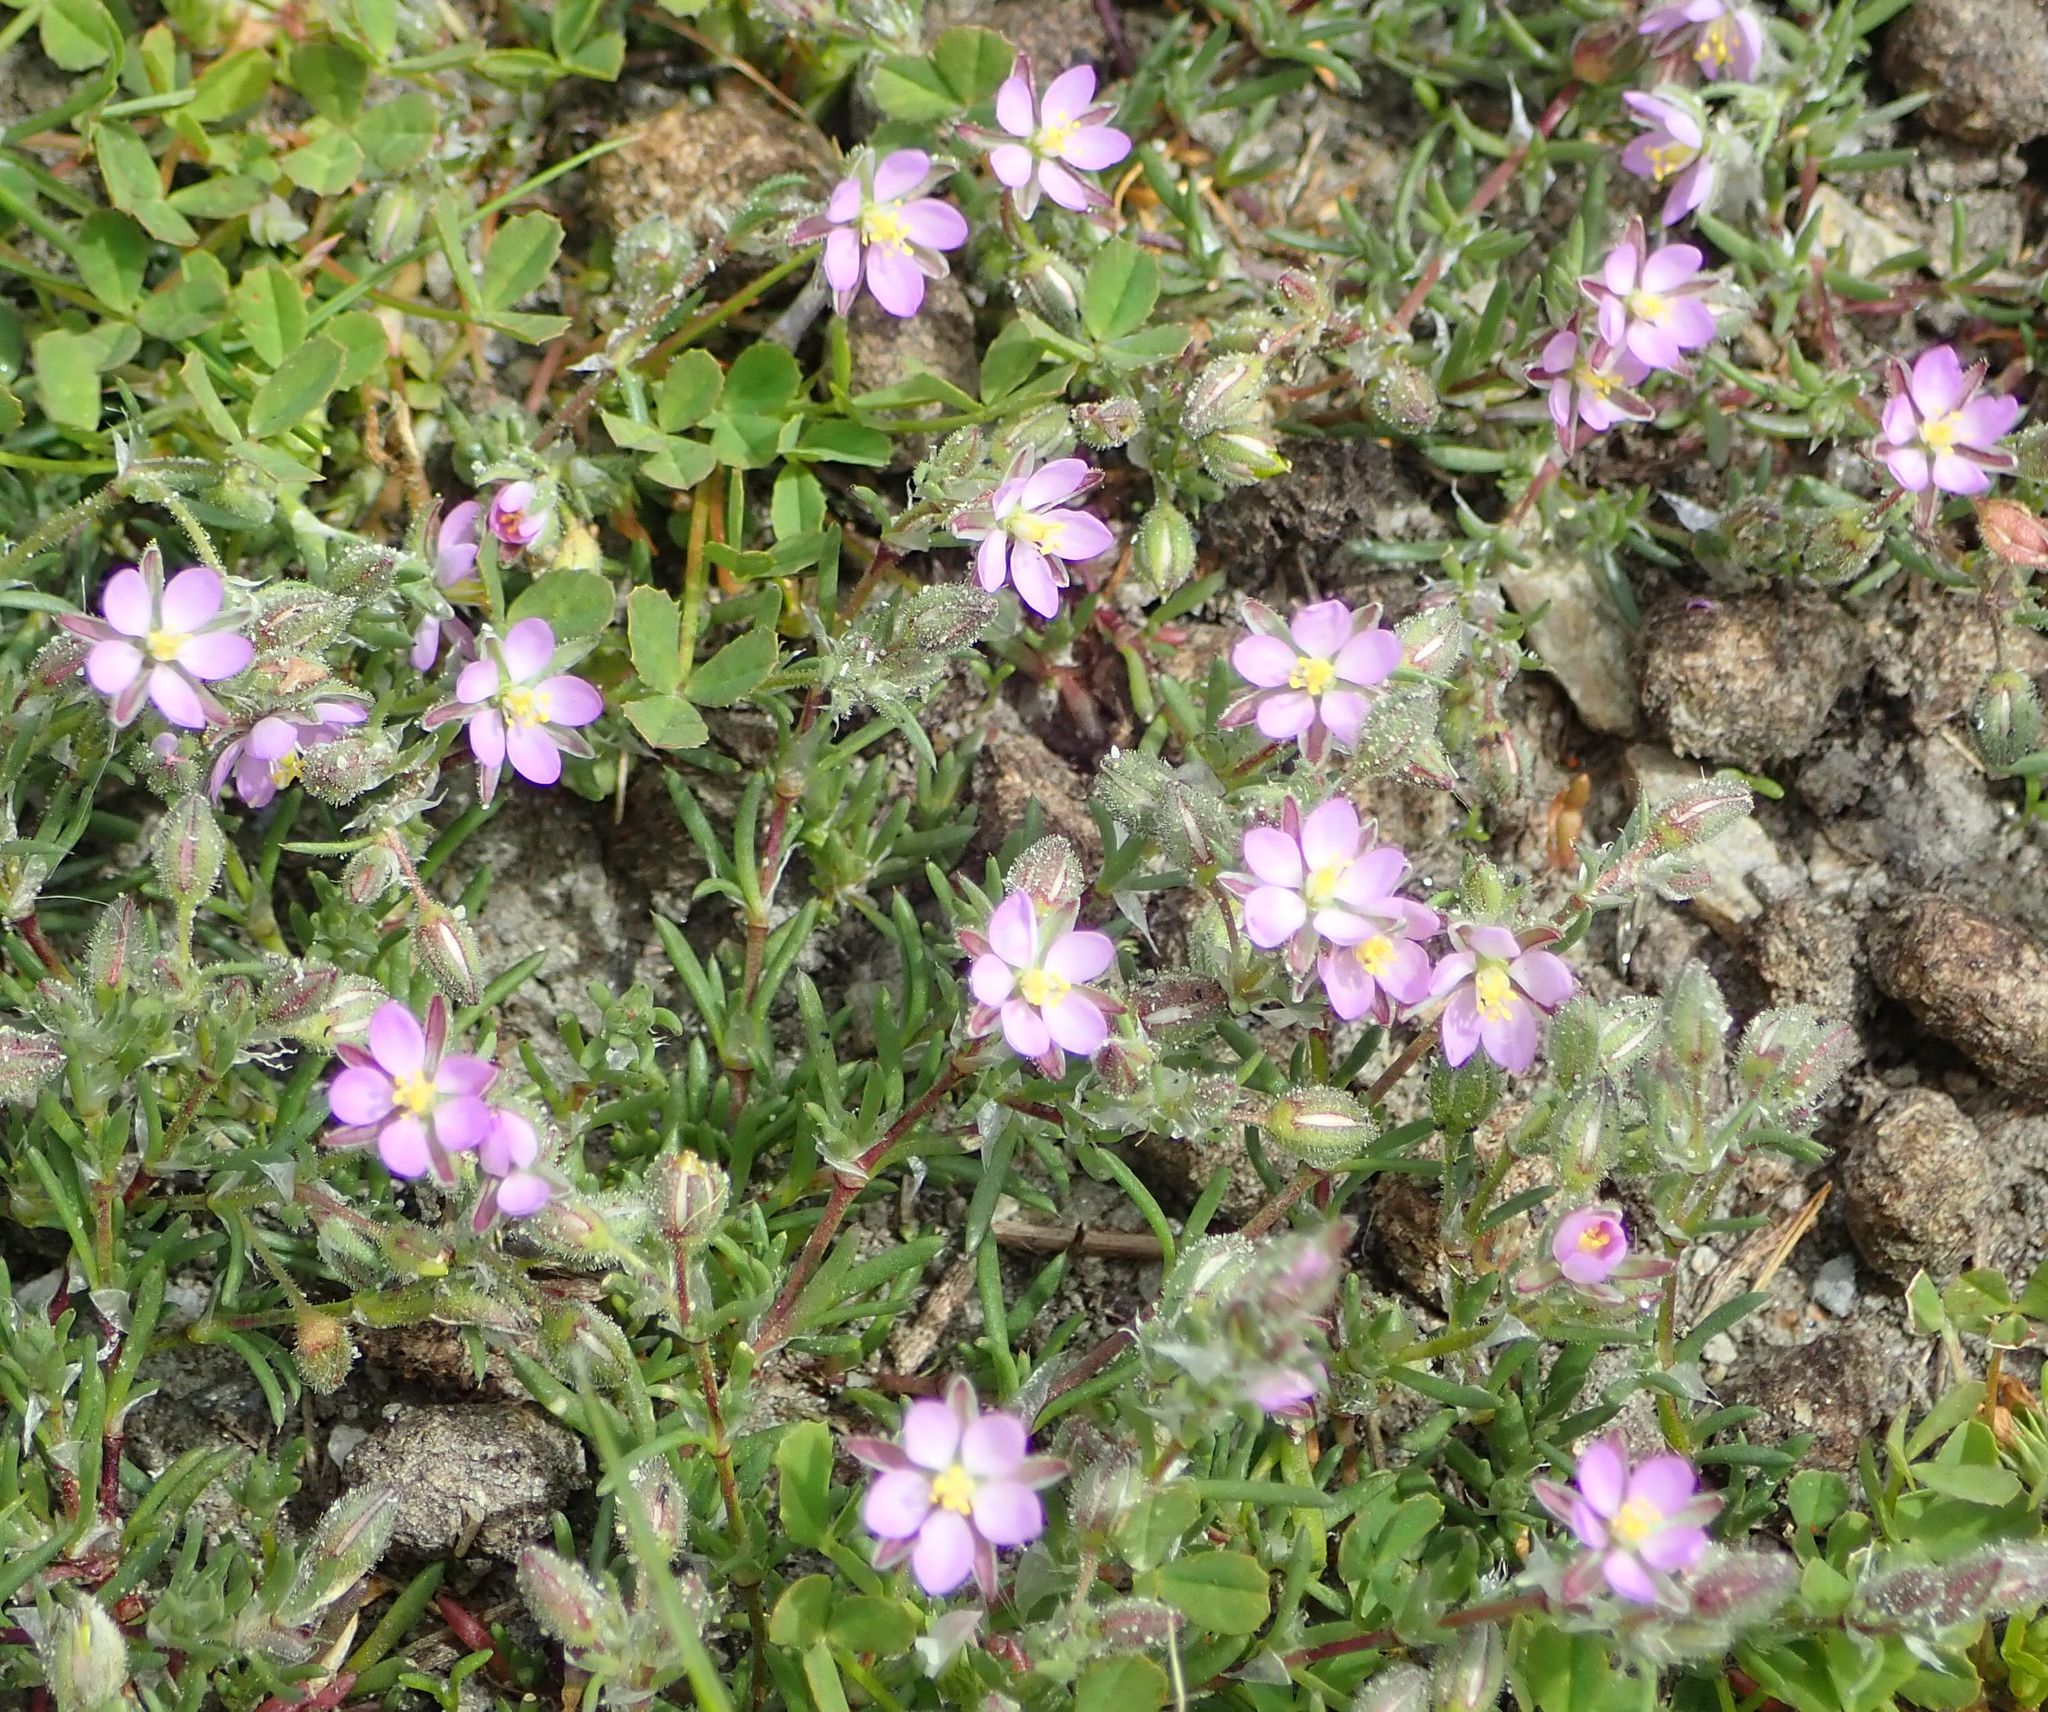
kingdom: Plantae
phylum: Tracheophyta
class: Magnoliopsida
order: Caryophyllales
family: Caryophyllaceae
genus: Spergularia
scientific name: Spergularia rubra
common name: Red sand-spurrey
